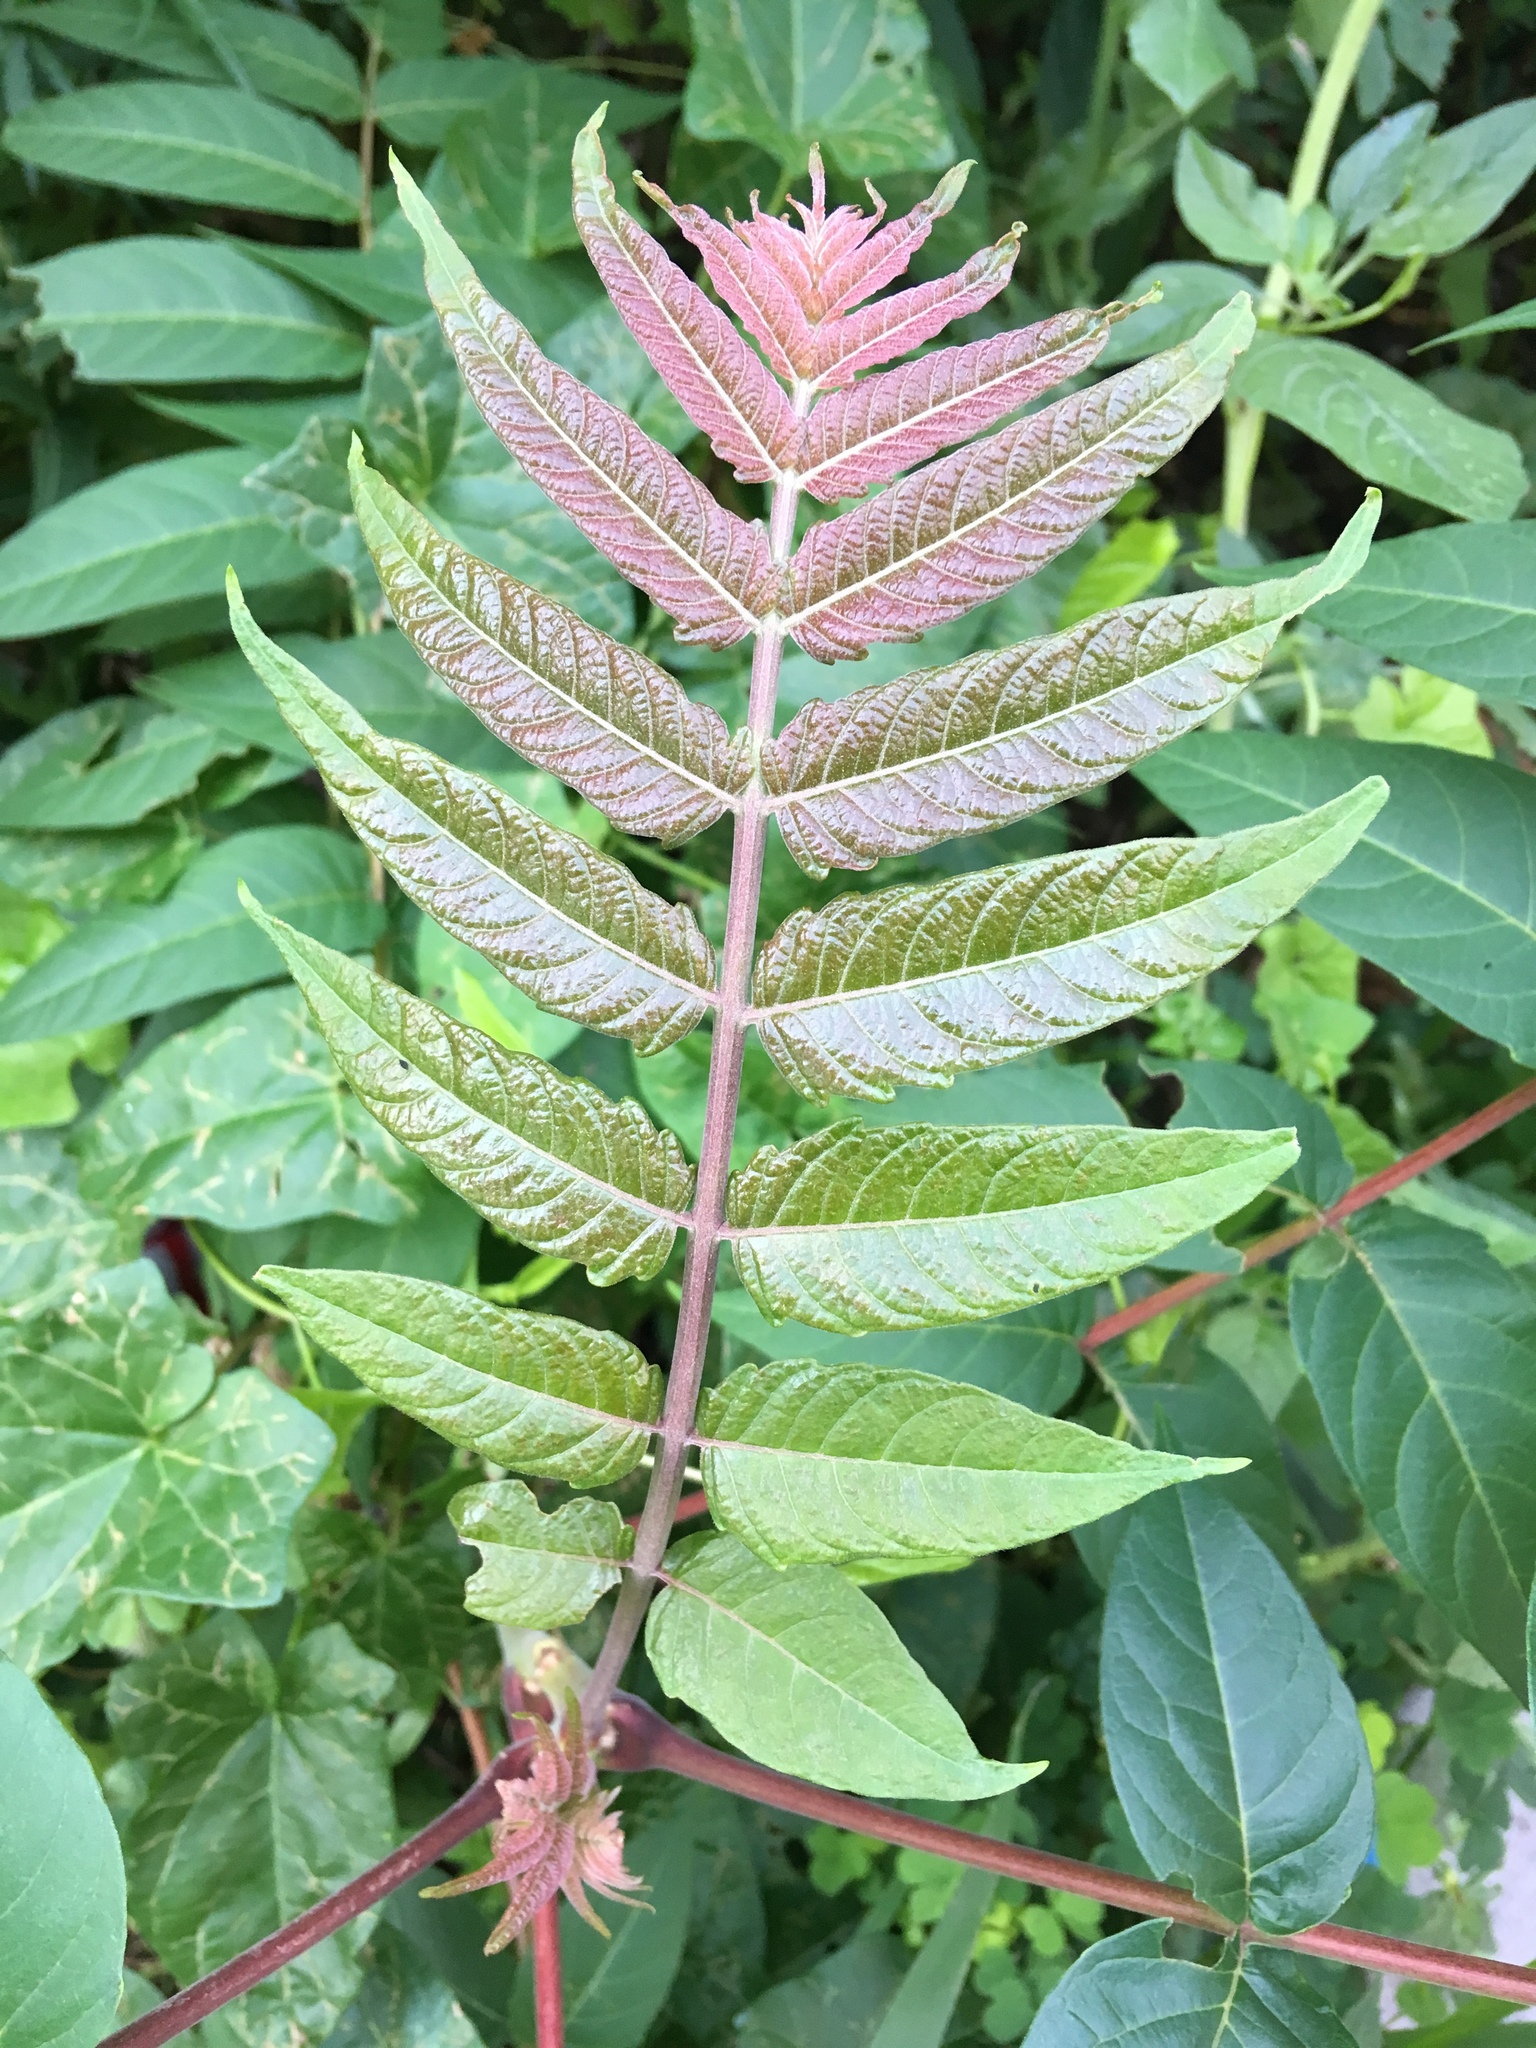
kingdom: Plantae
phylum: Tracheophyta
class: Magnoliopsida
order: Sapindales
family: Simaroubaceae
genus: Ailanthus
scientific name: Ailanthus altissima
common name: Tree-of-heaven
